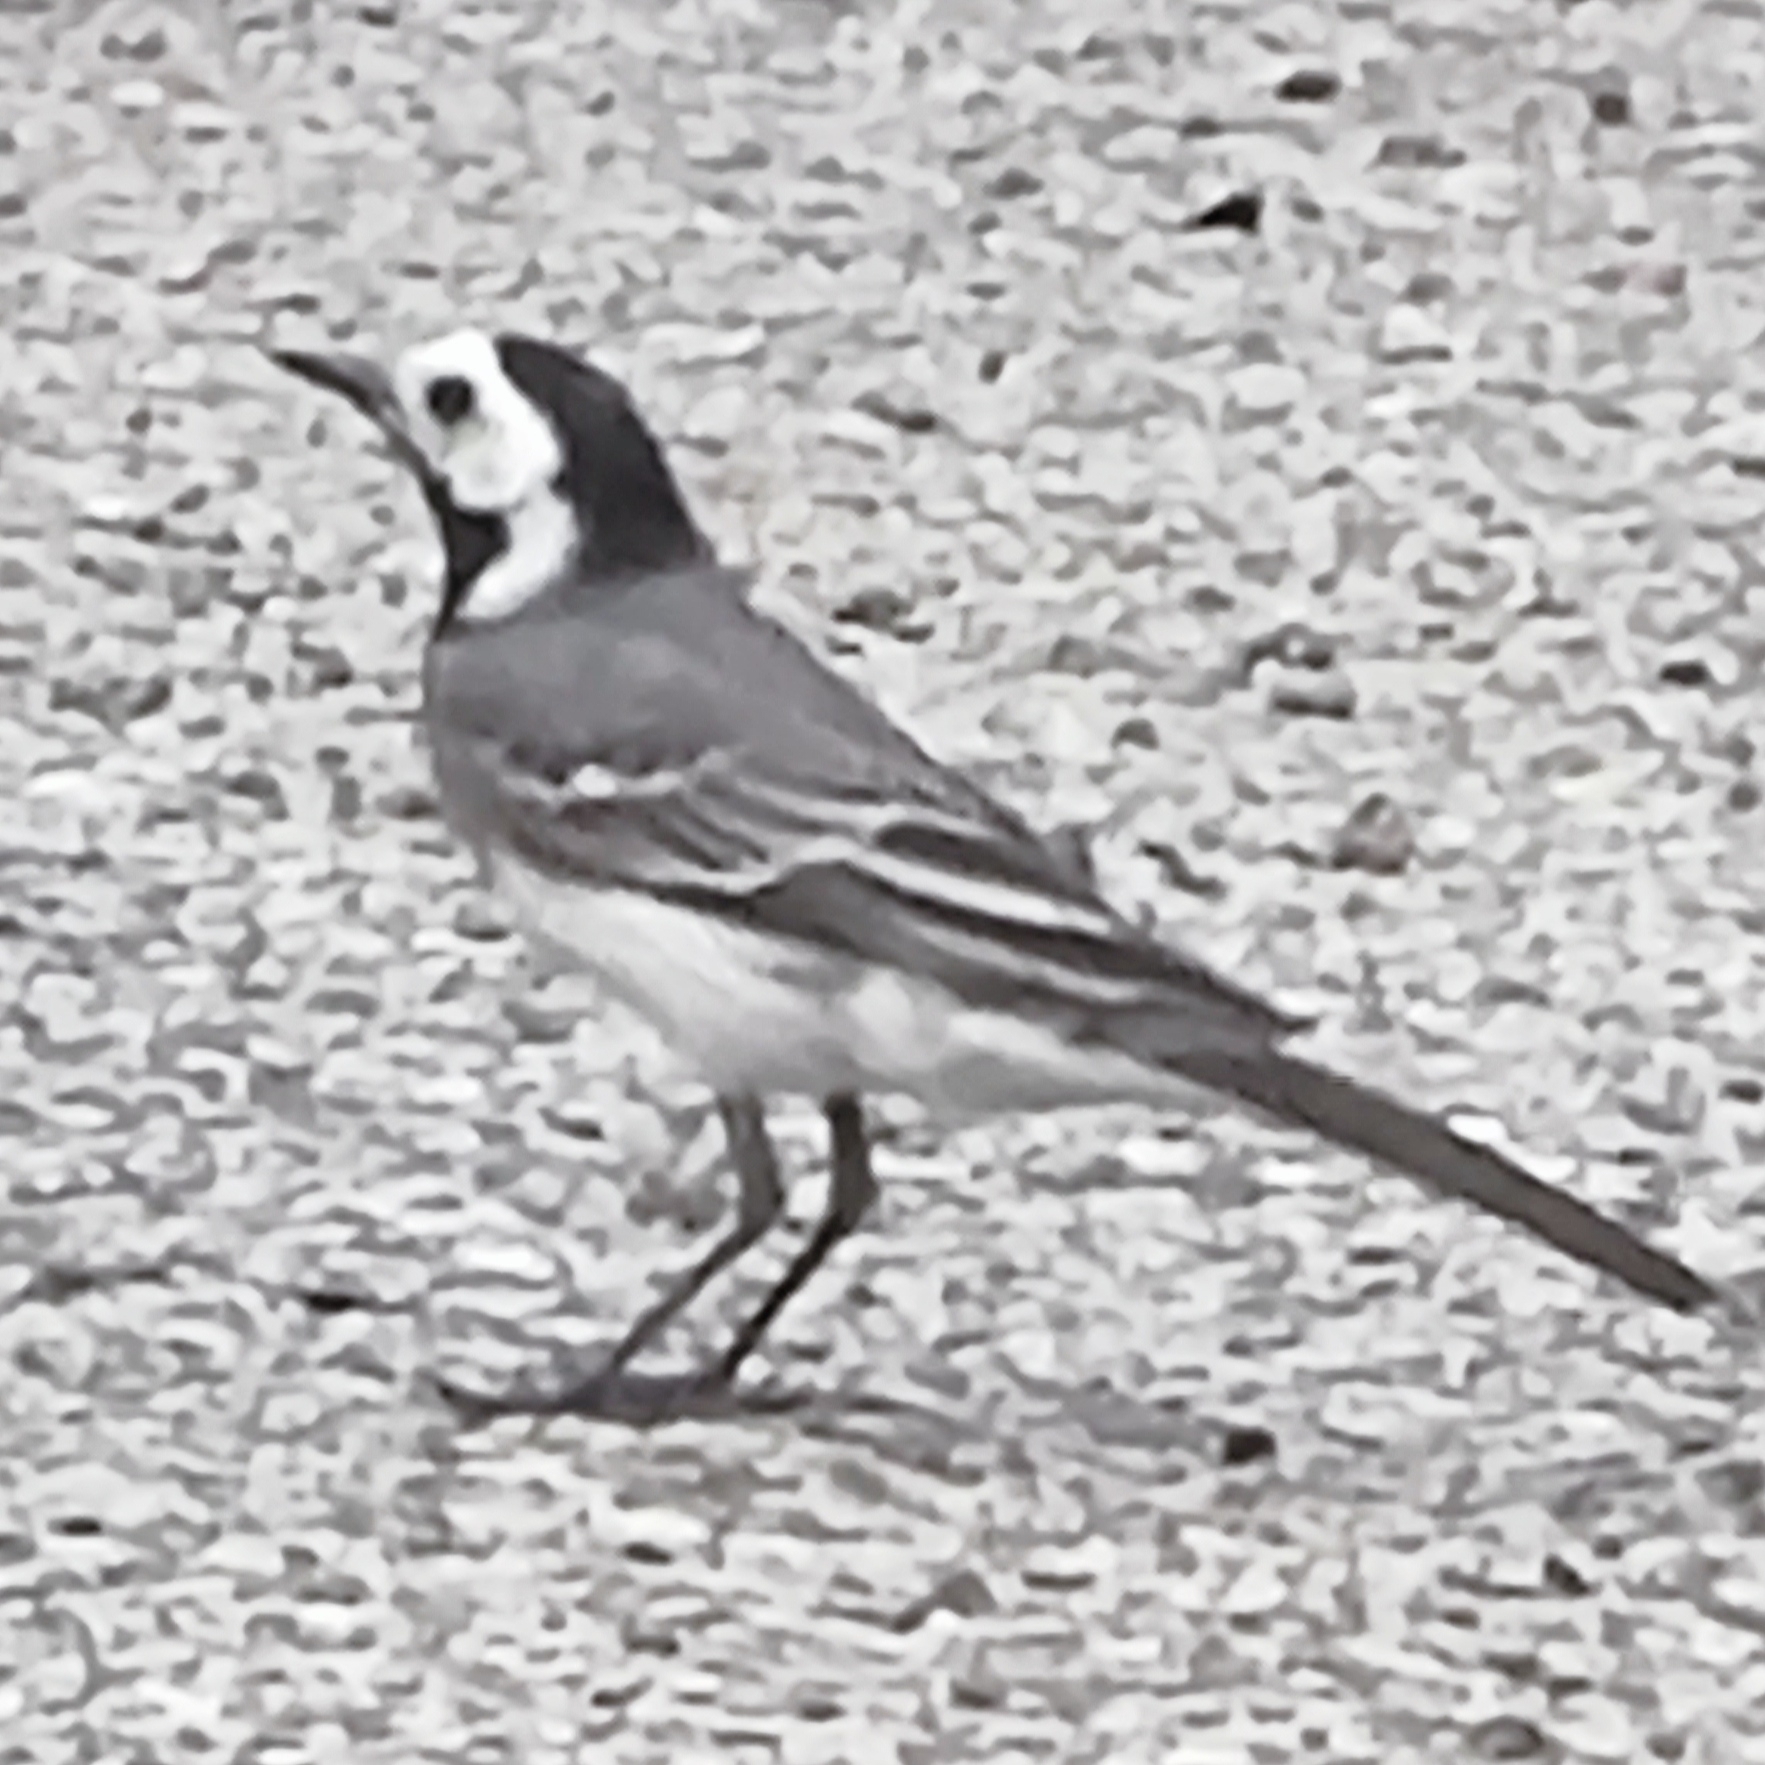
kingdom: Animalia
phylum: Chordata
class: Aves
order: Passeriformes
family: Motacillidae
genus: Motacilla
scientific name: Motacilla alba
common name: White wagtail
